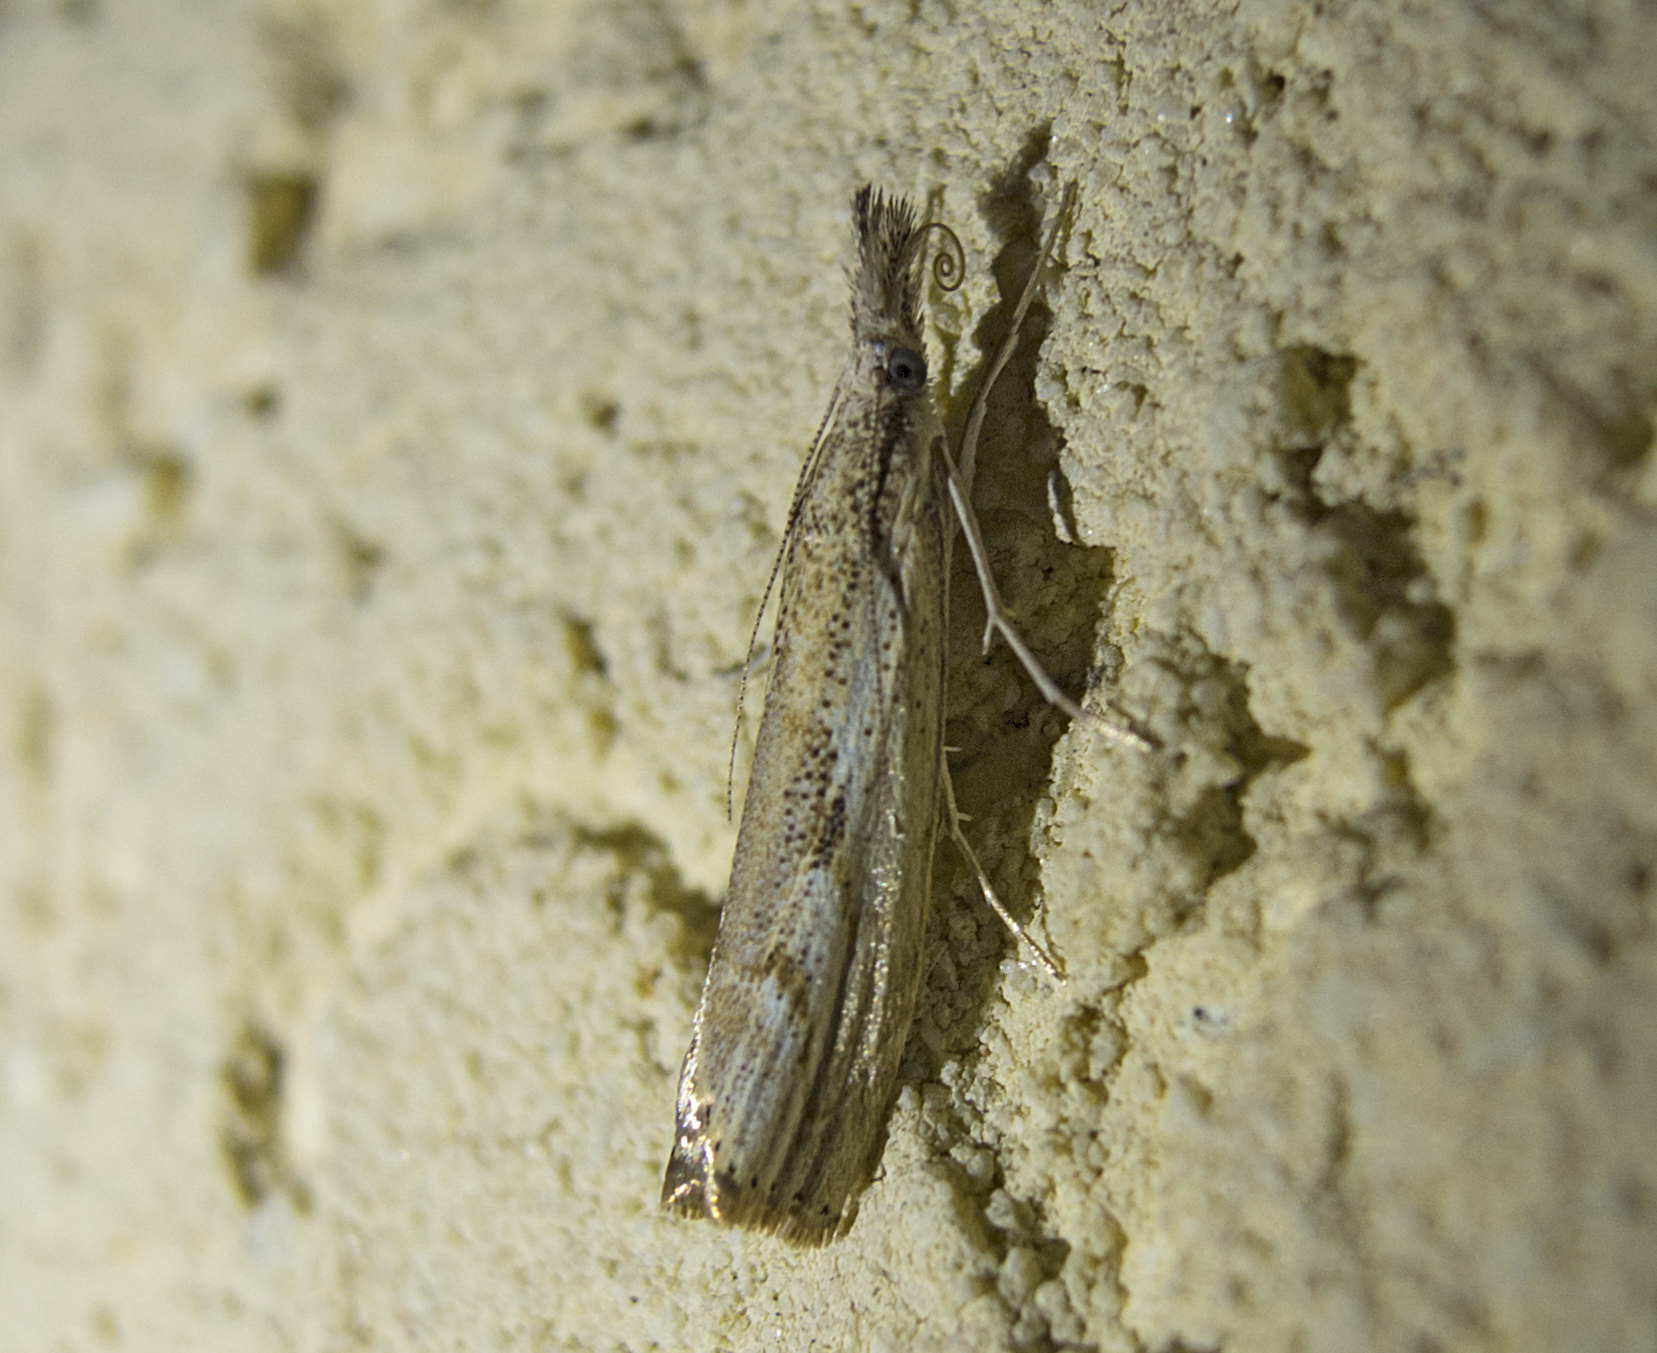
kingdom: Animalia
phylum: Arthropoda
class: Insecta
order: Lepidoptera
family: Crambidae
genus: Agriphila
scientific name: Agriphila tolli
